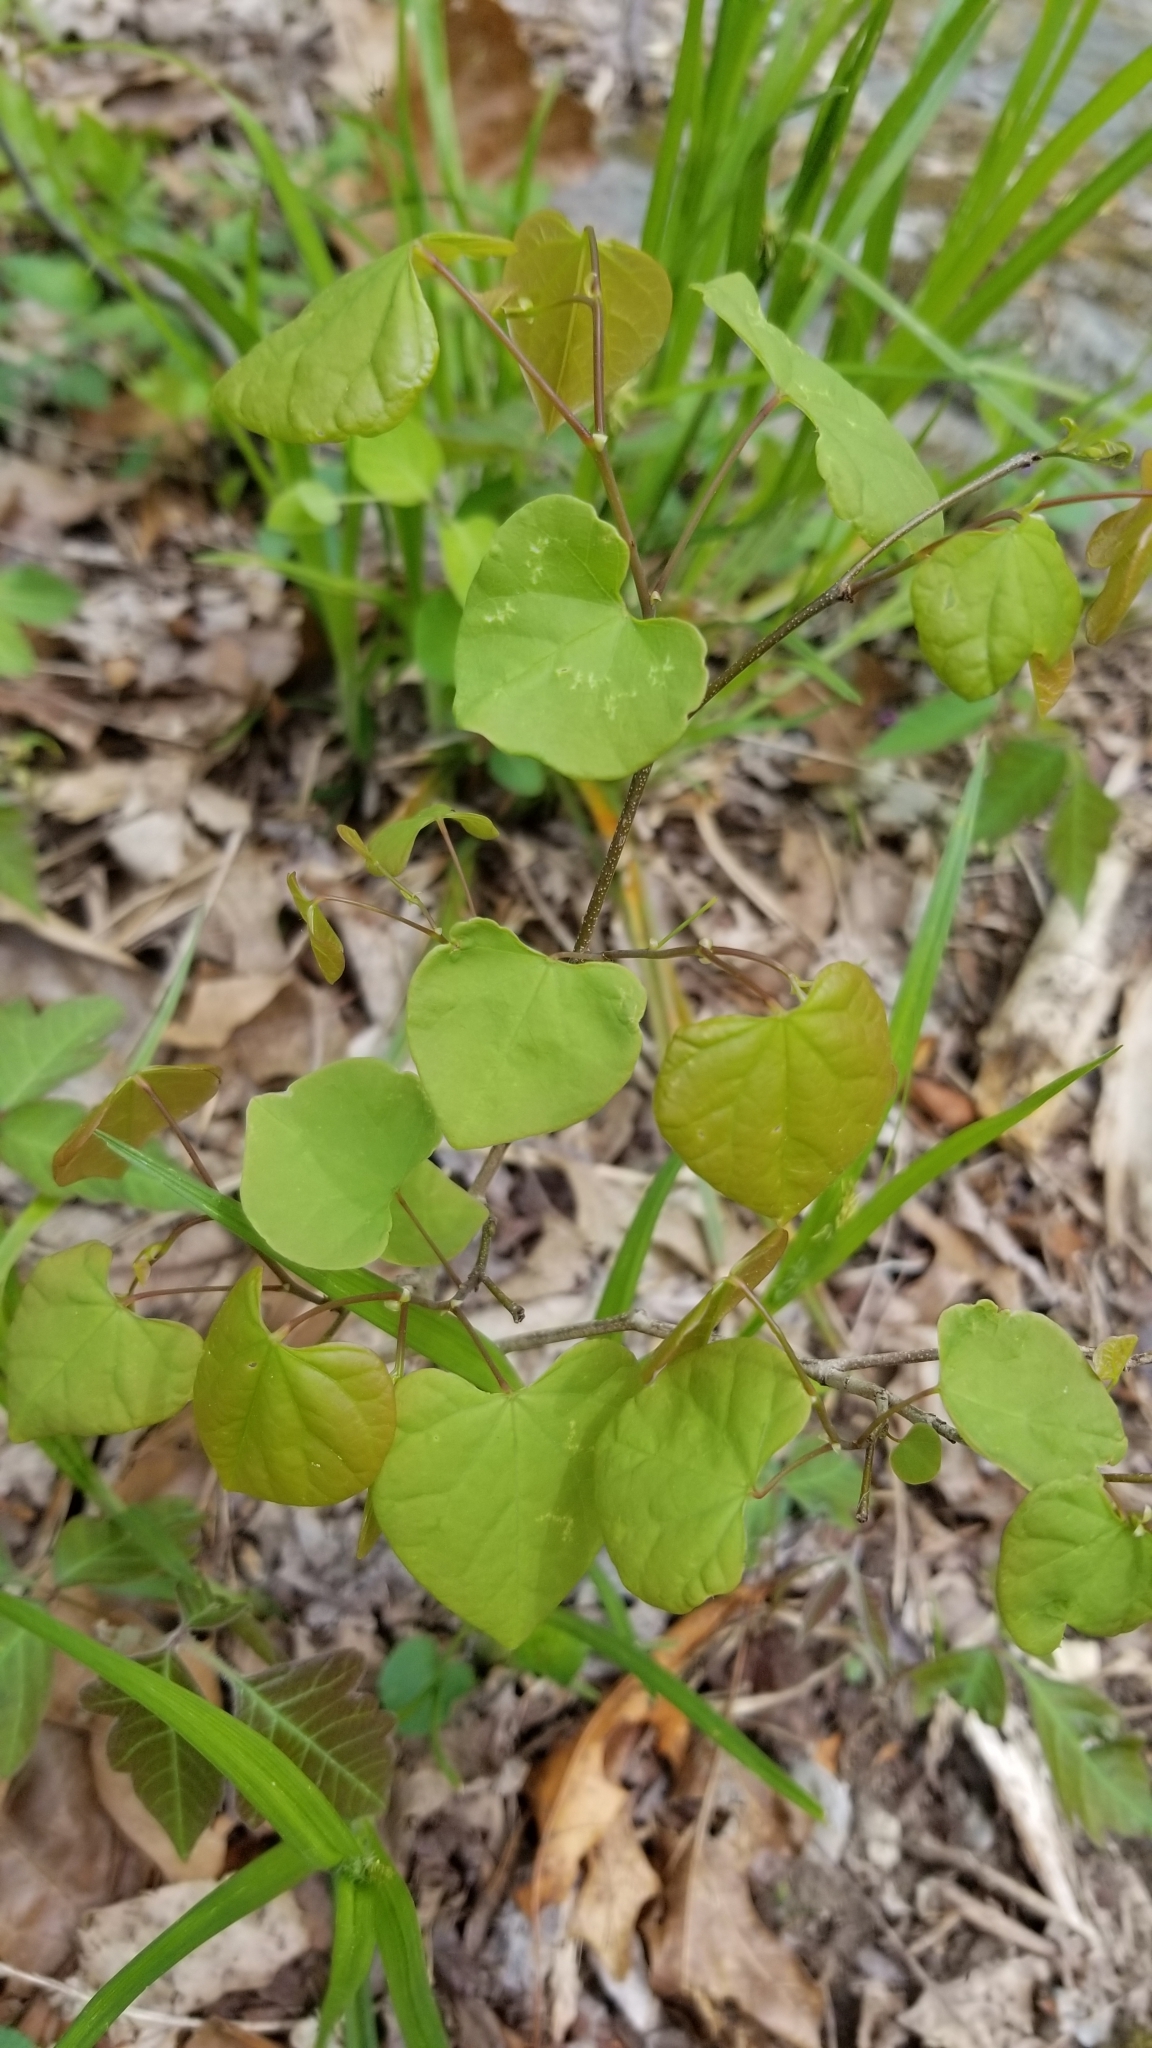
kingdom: Plantae
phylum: Tracheophyta
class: Magnoliopsida
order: Fabales
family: Fabaceae
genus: Cercis
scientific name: Cercis canadensis
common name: Eastern redbud
